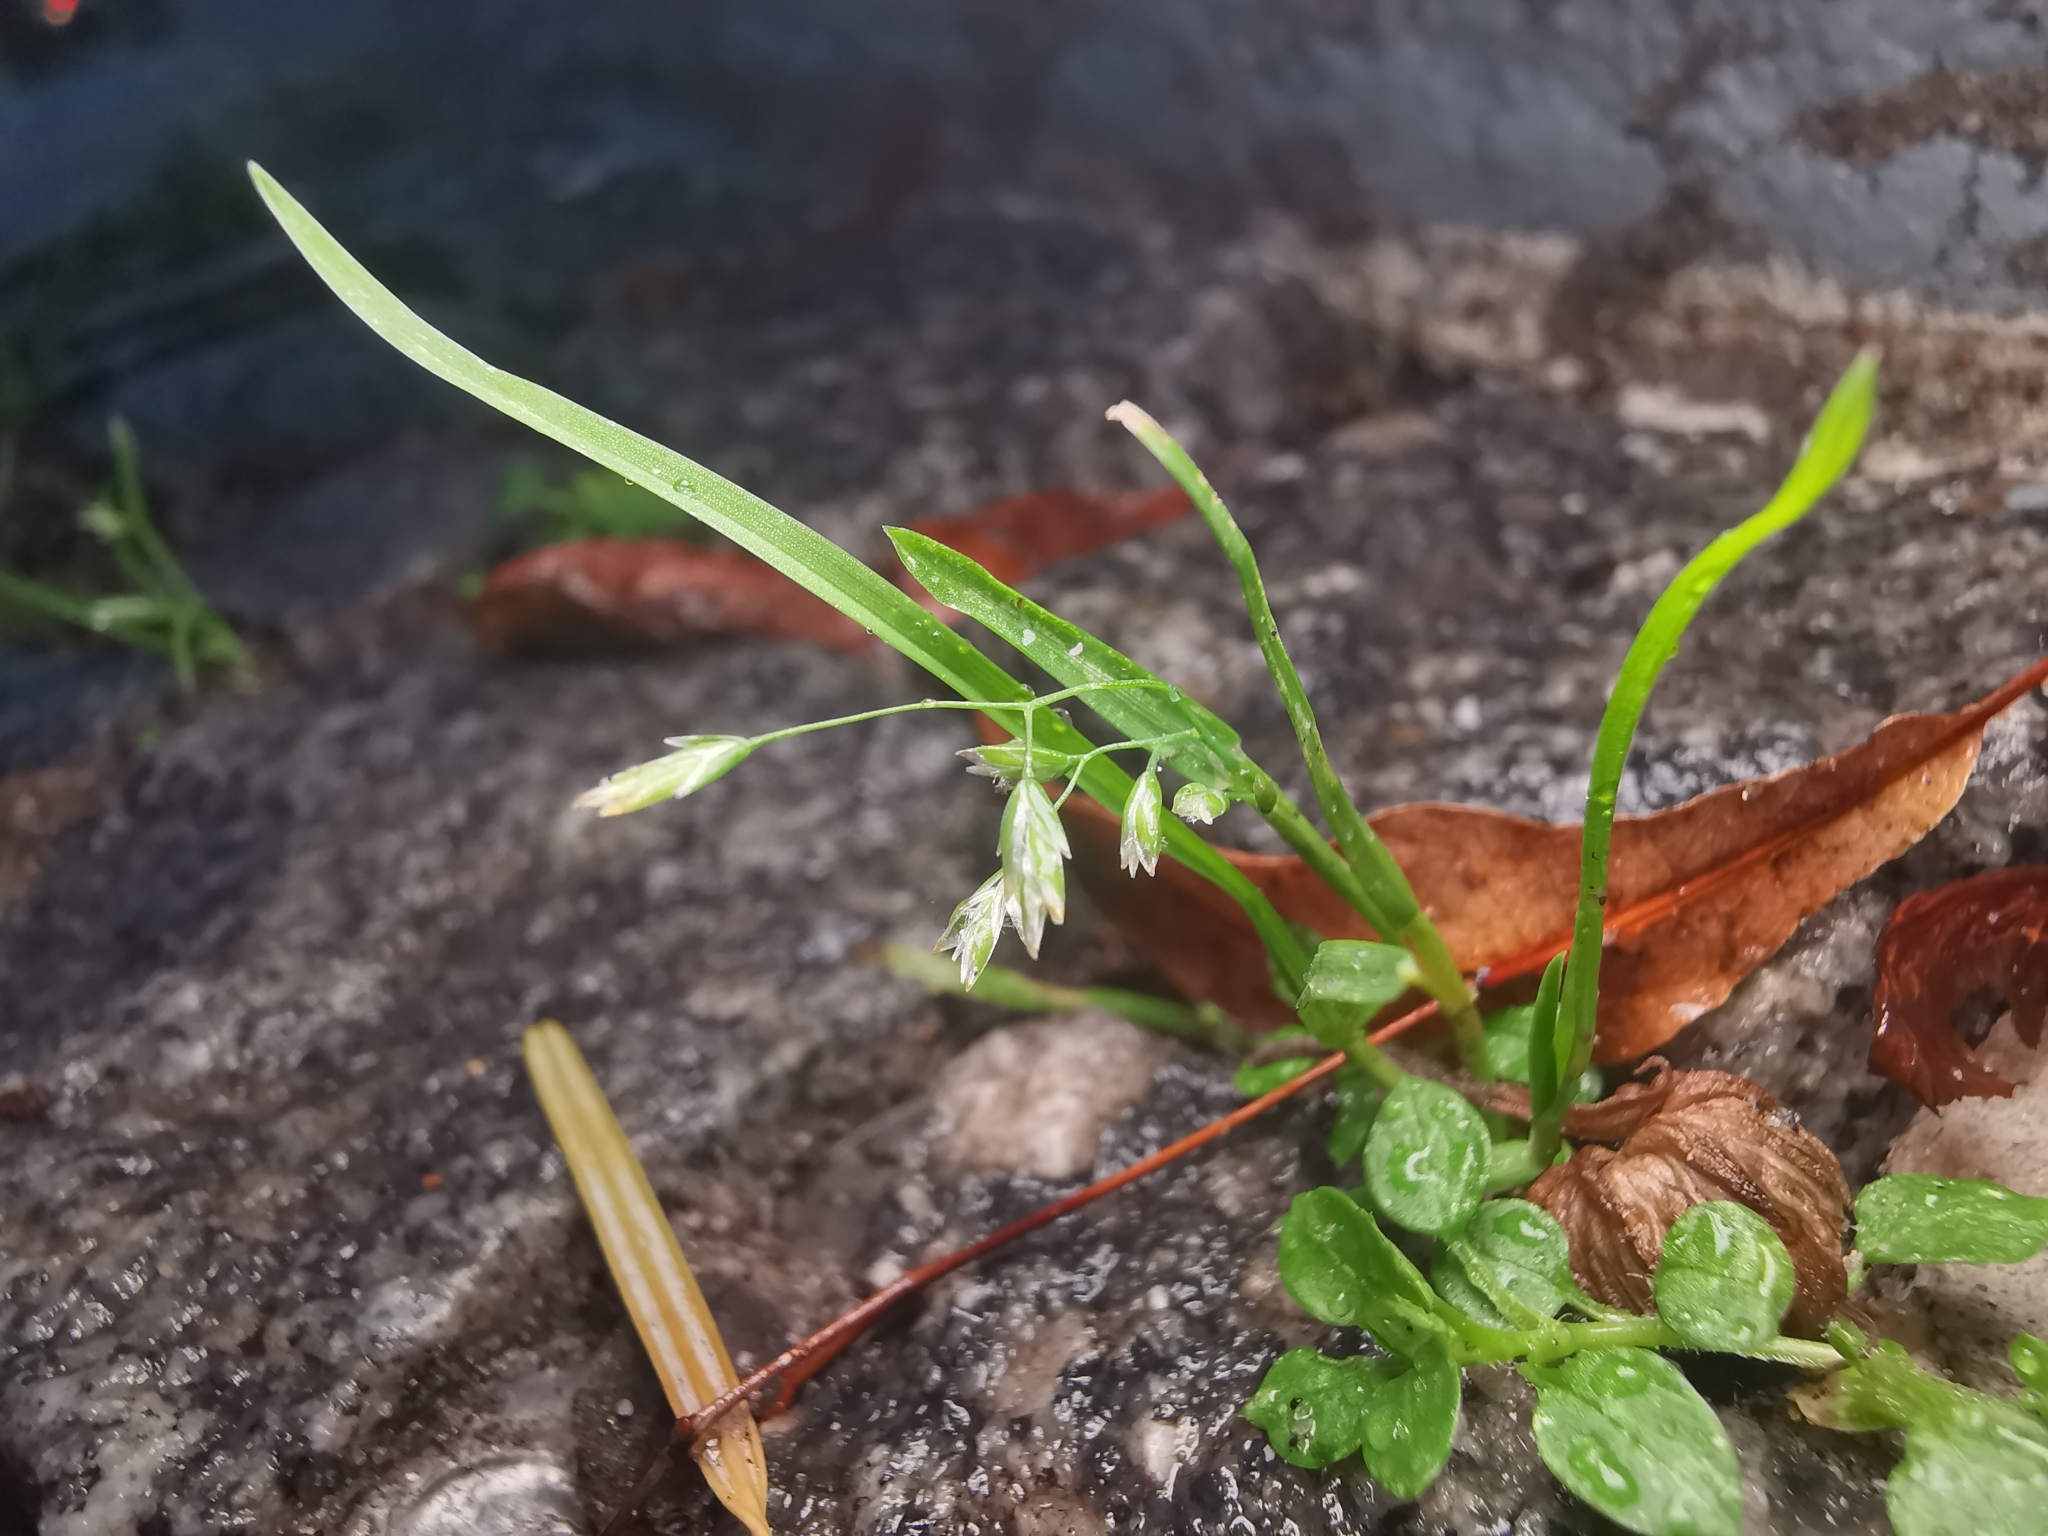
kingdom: Plantae
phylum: Tracheophyta
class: Liliopsida
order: Poales
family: Poaceae
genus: Poa
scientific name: Poa annua
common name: Annual bluegrass
